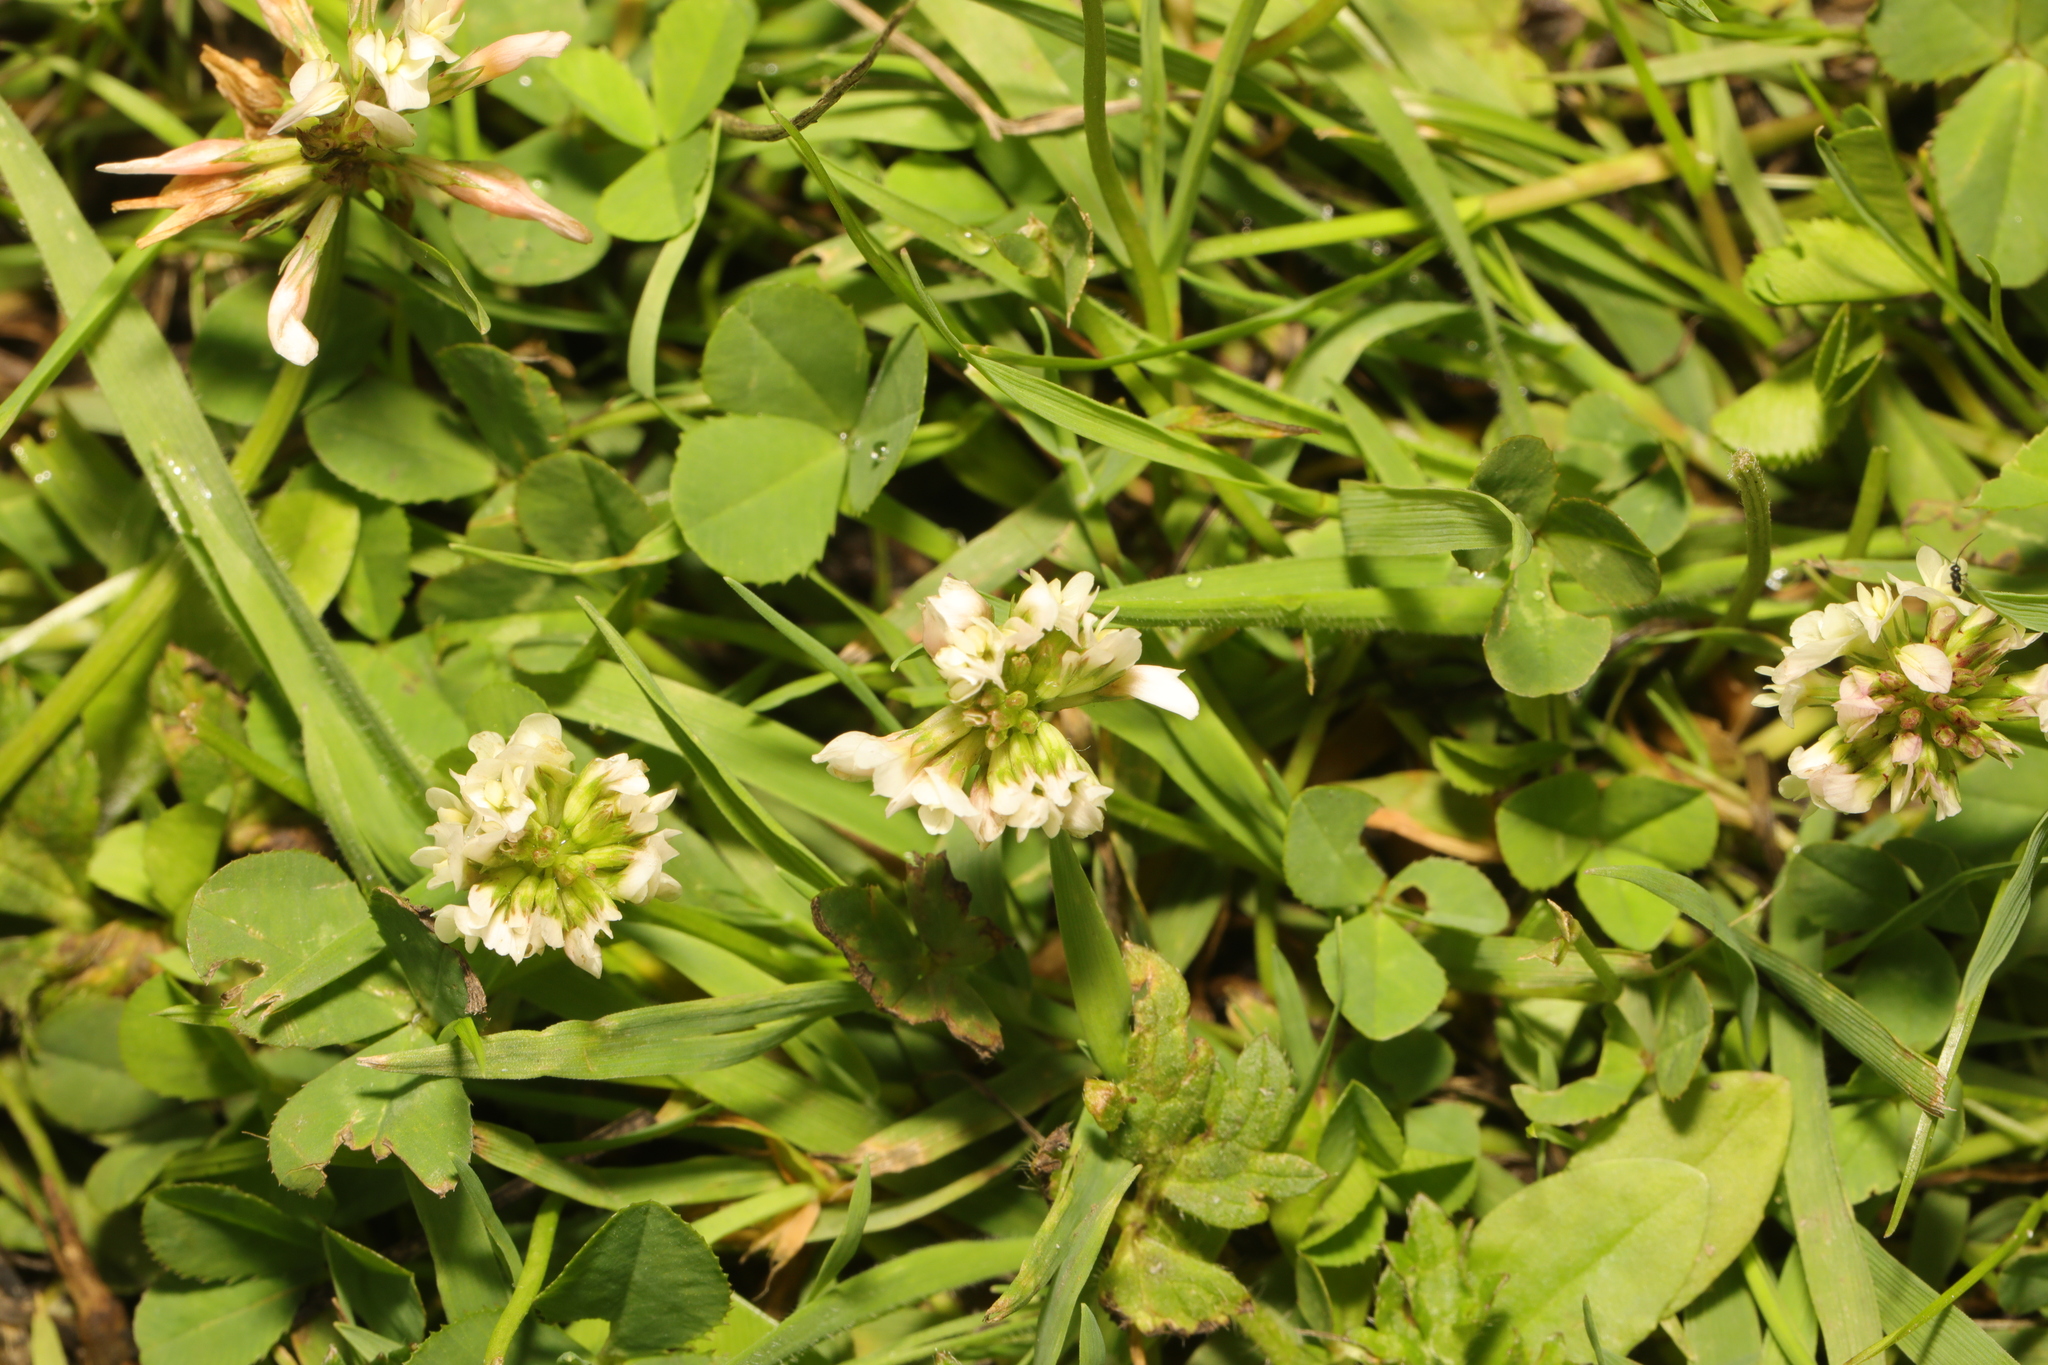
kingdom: Plantae
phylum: Tracheophyta
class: Magnoliopsida
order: Fabales
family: Fabaceae
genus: Trifolium
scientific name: Trifolium repens
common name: White clover
